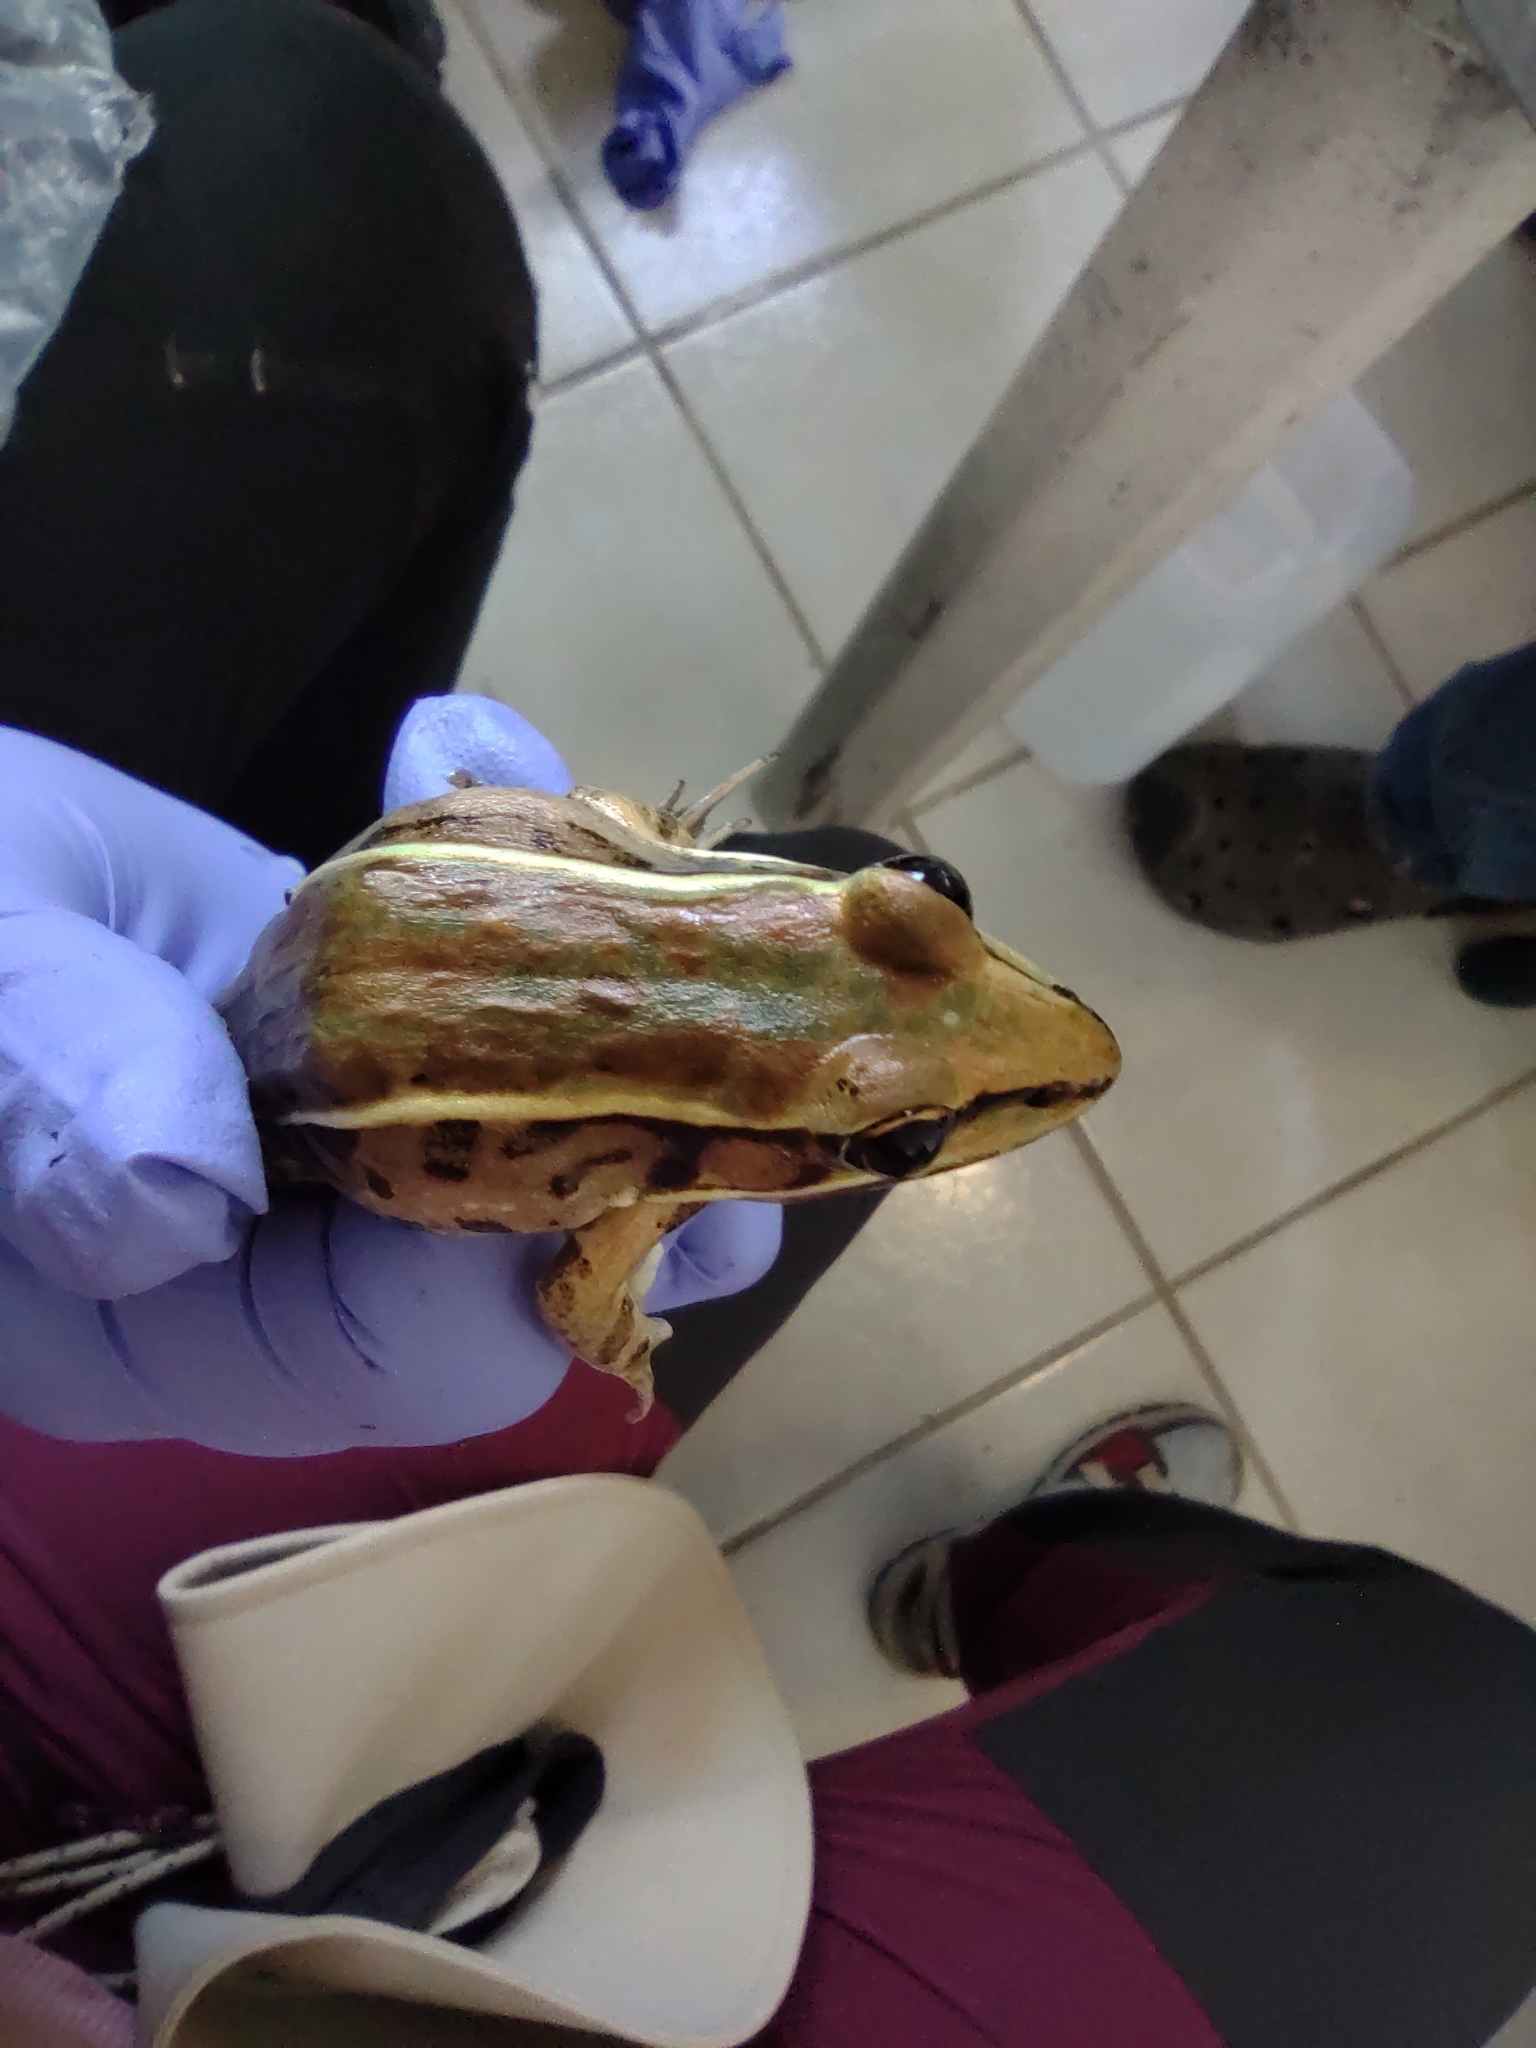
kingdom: Animalia
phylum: Chordata
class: Amphibia
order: Anura
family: Ranidae
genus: Lithobates
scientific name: Lithobates brownorum
